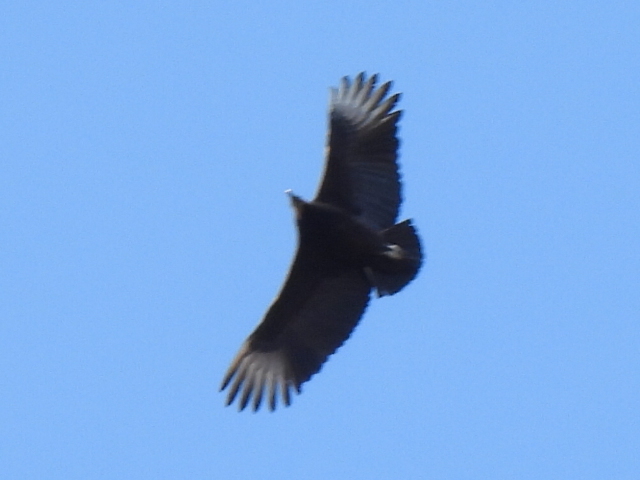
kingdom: Animalia
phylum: Chordata
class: Aves
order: Accipitriformes
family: Cathartidae
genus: Coragyps
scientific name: Coragyps atratus
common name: Black vulture
